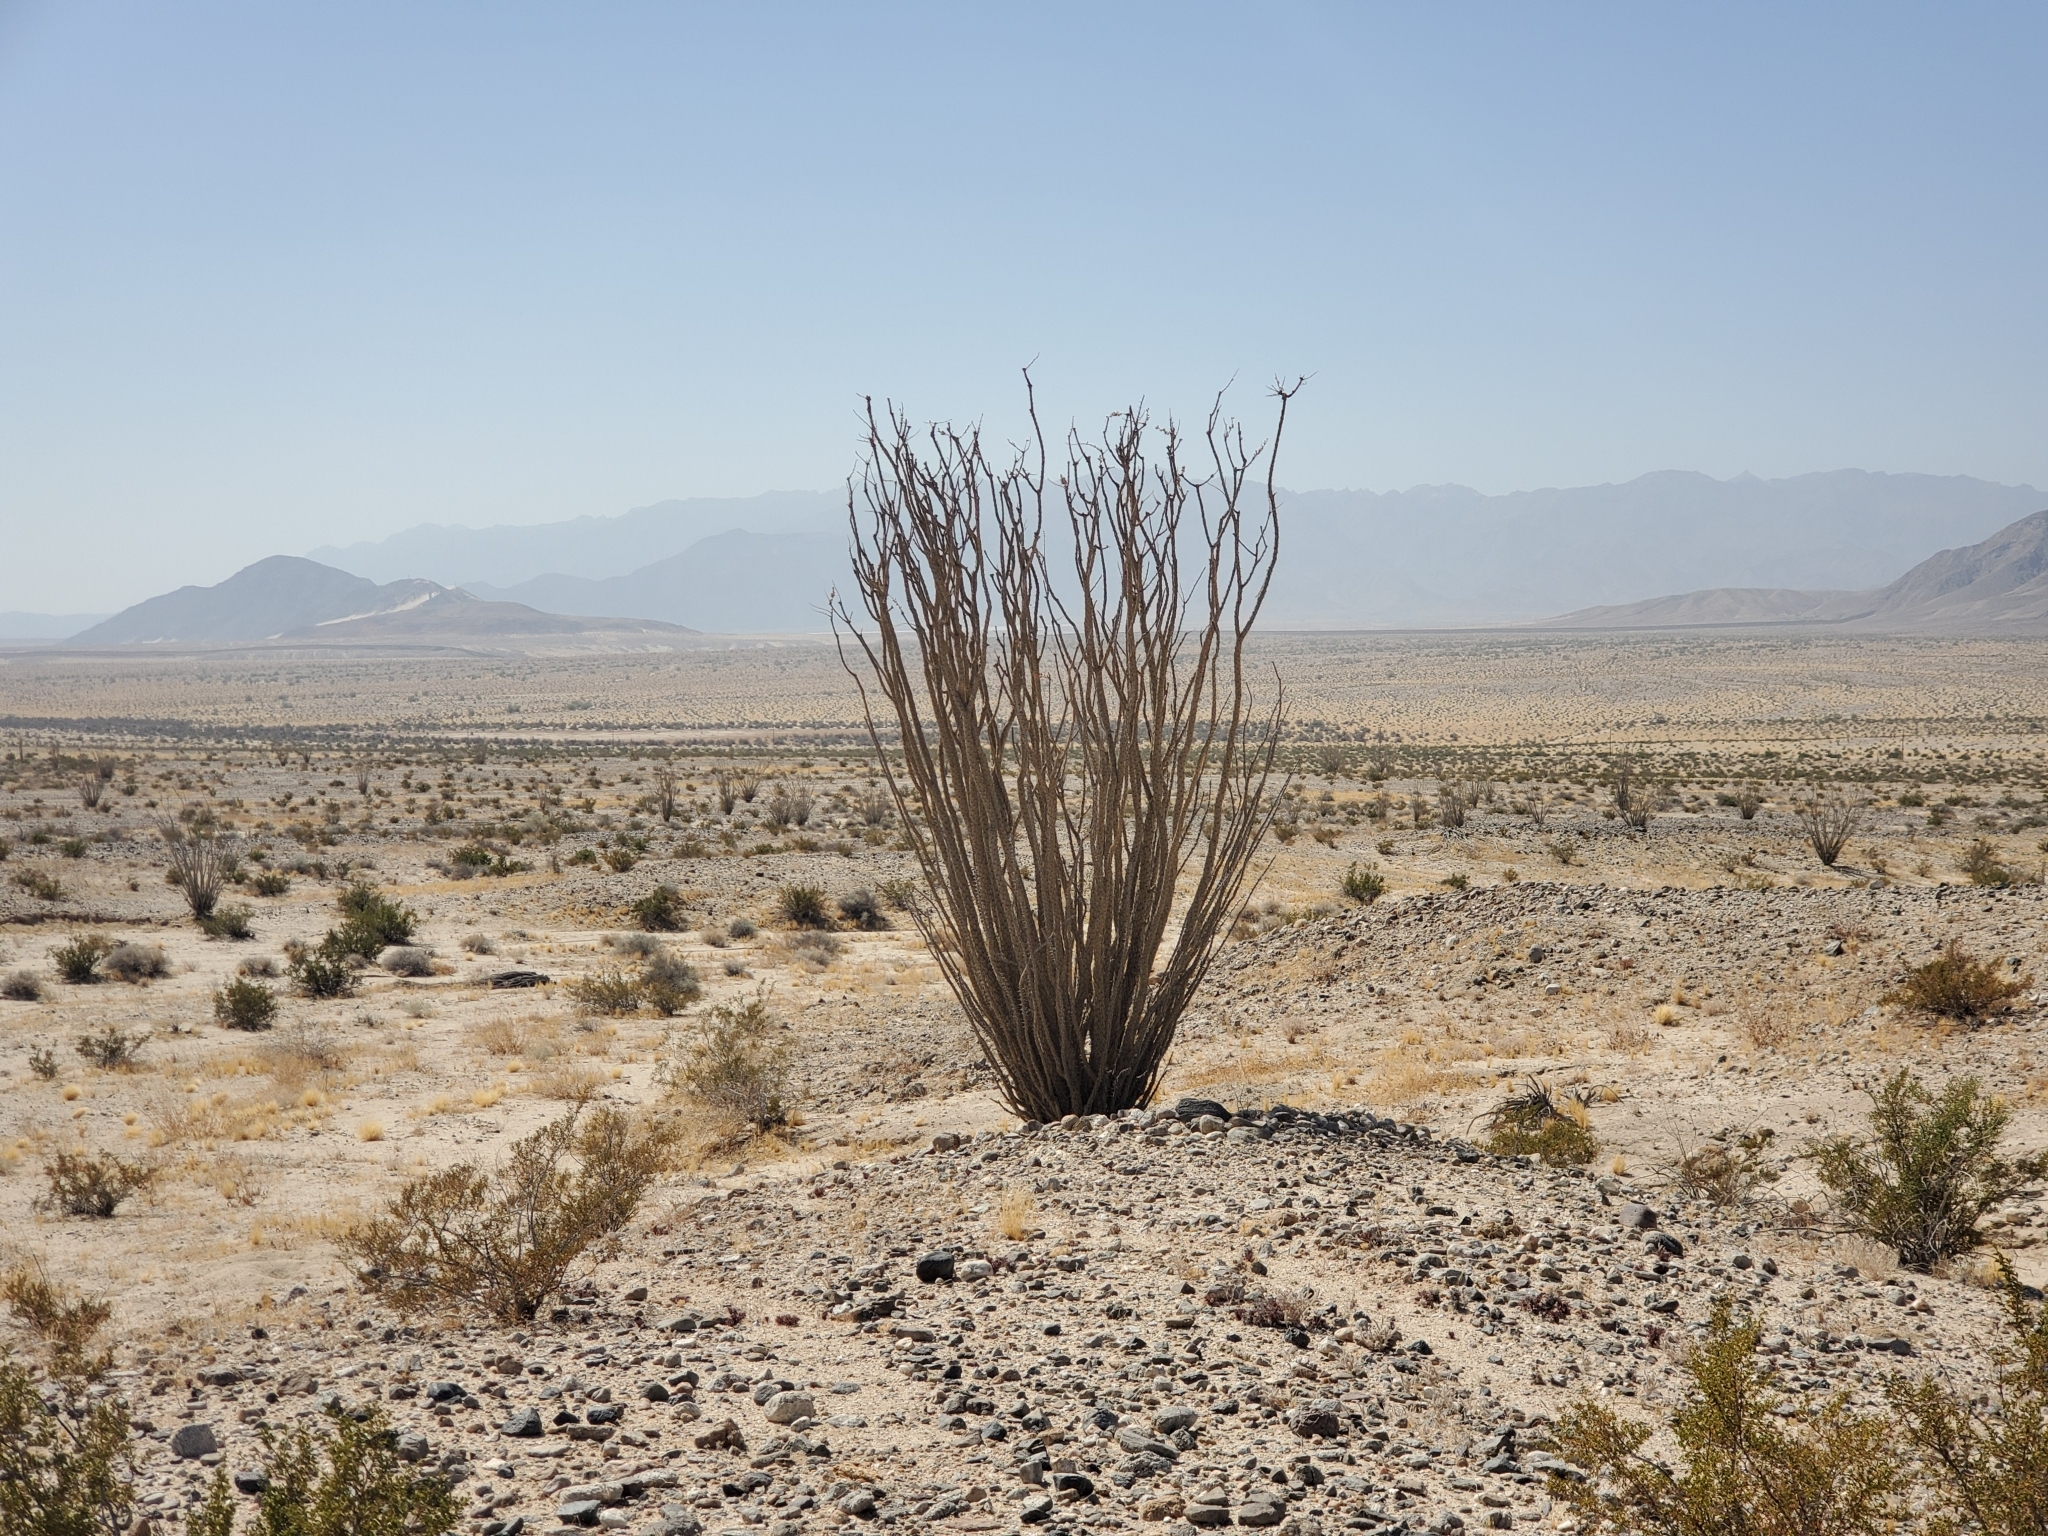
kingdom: Plantae
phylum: Tracheophyta
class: Magnoliopsida
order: Ericales
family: Fouquieriaceae
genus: Fouquieria
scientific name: Fouquieria splendens
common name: Vine-cactus
